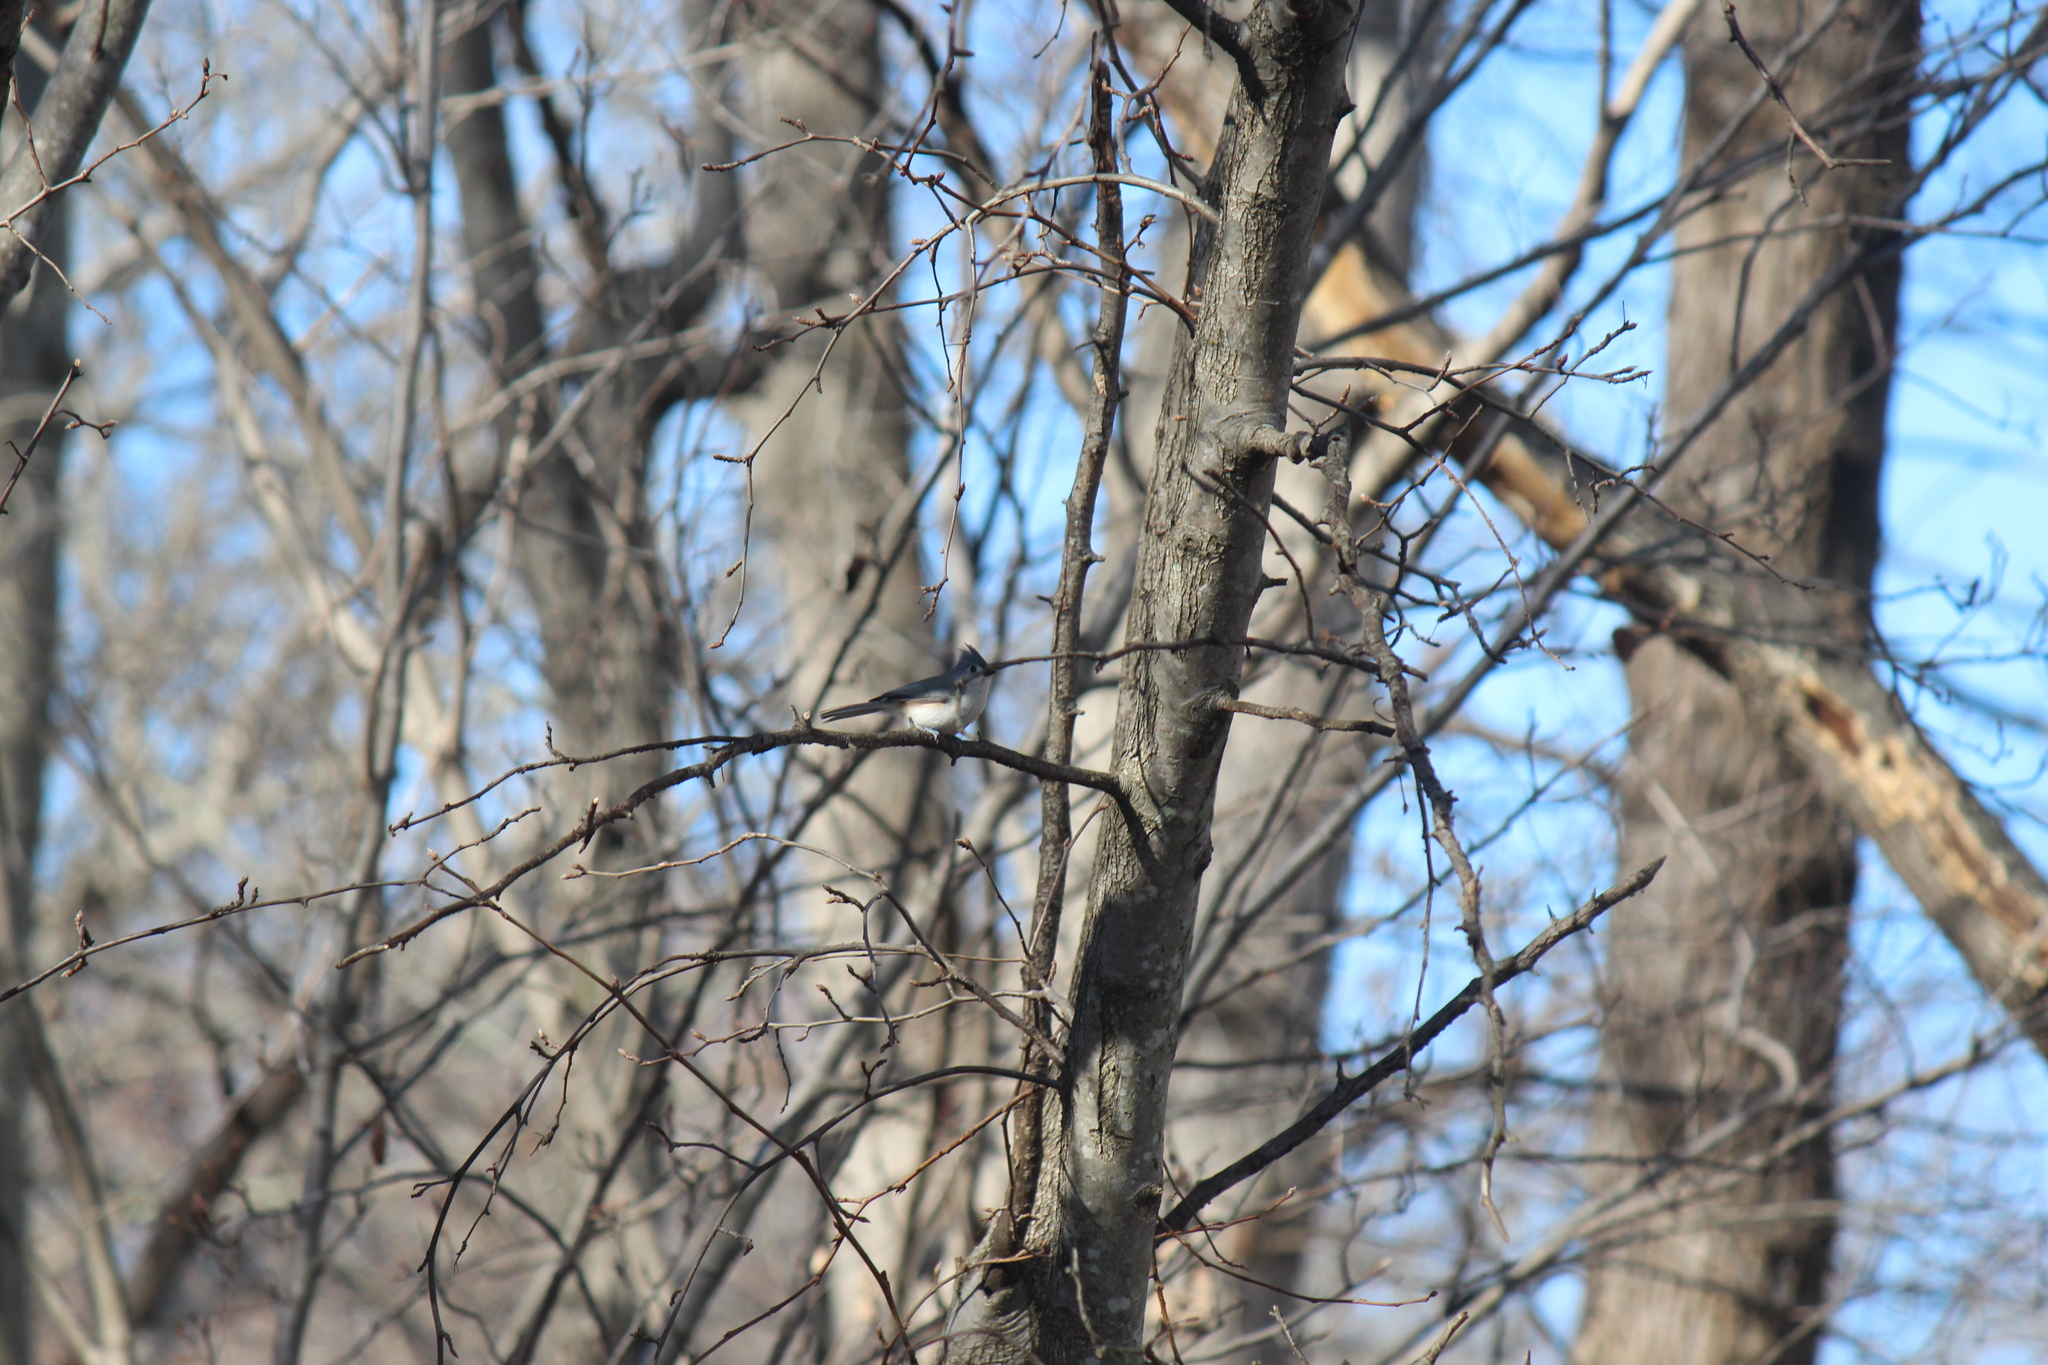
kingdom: Animalia
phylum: Chordata
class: Aves
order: Passeriformes
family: Paridae
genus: Baeolophus
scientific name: Baeolophus bicolor
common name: Tufted titmouse
